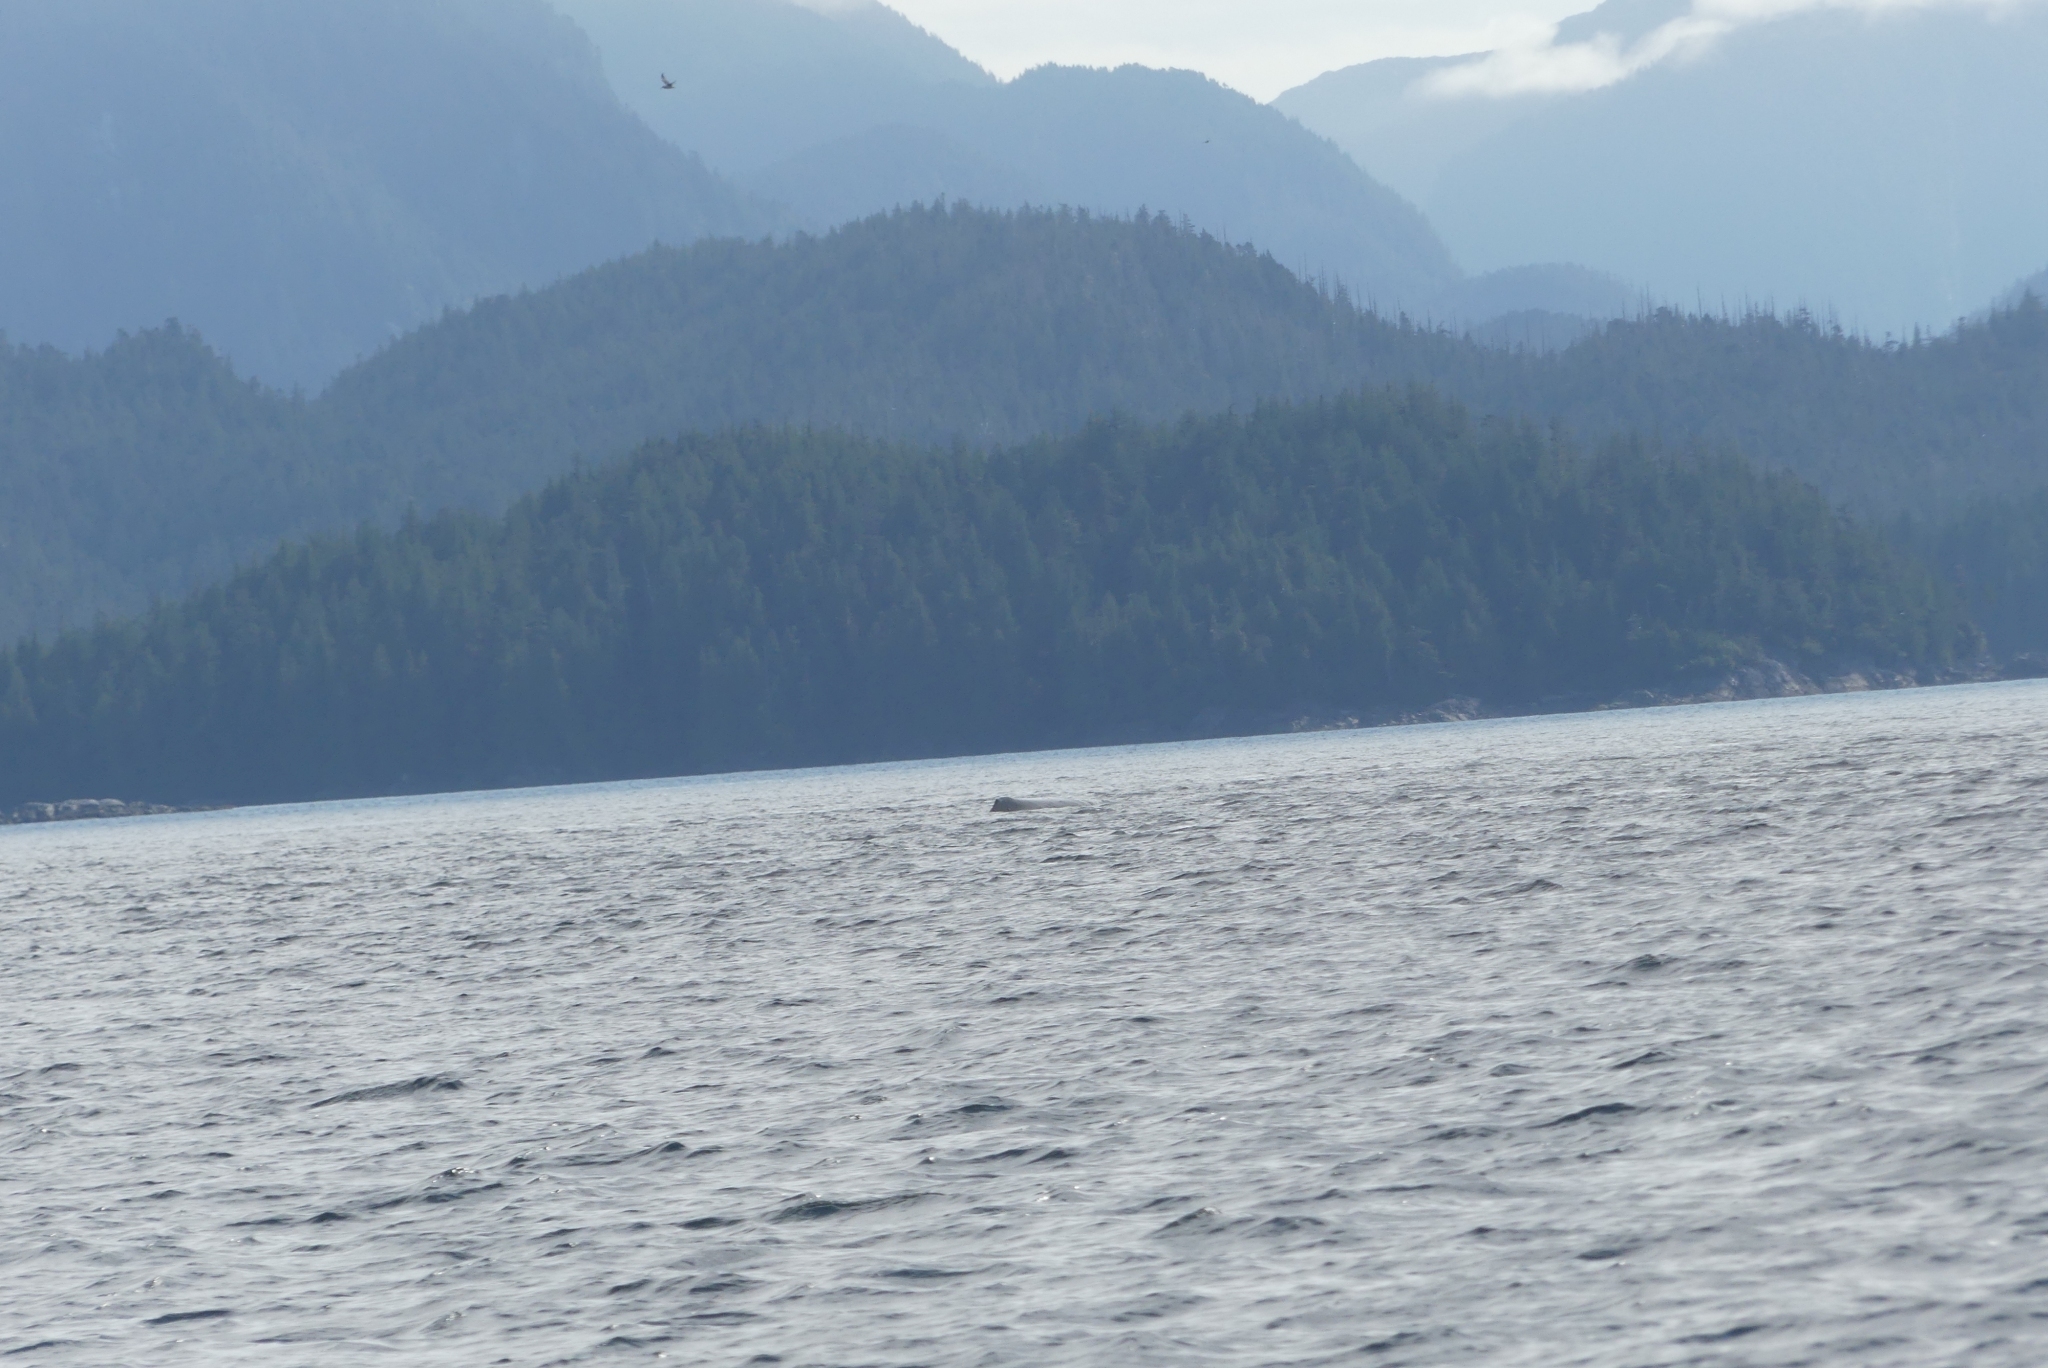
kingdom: Animalia
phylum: Chordata
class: Mammalia
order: Cetacea
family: Balaenopteridae
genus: Megaptera
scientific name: Megaptera novaeangliae
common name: Humpback whale
